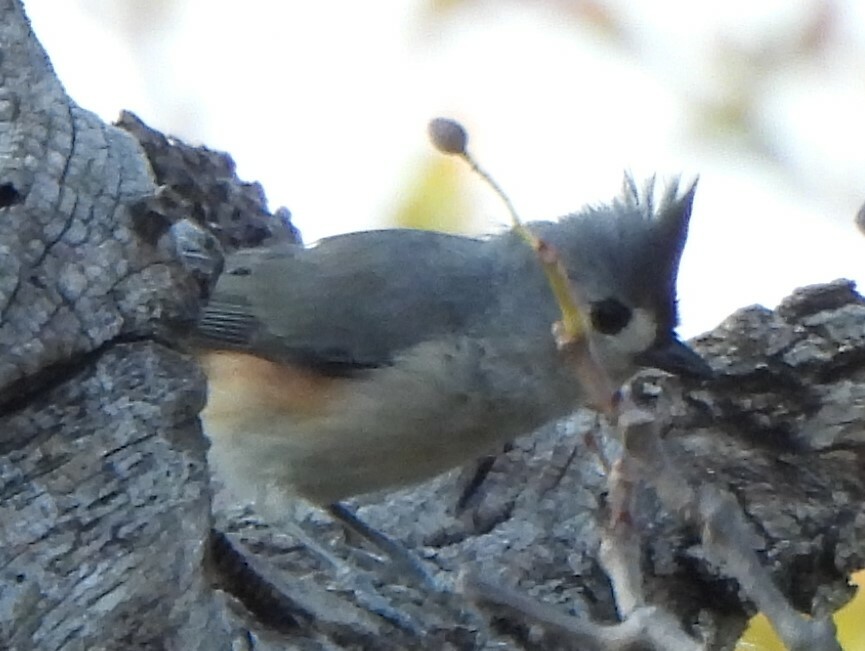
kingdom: Animalia
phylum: Chordata
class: Aves
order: Passeriformes
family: Paridae
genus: Baeolophus
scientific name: Baeolophus bicolor
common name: Tufted titmouse
